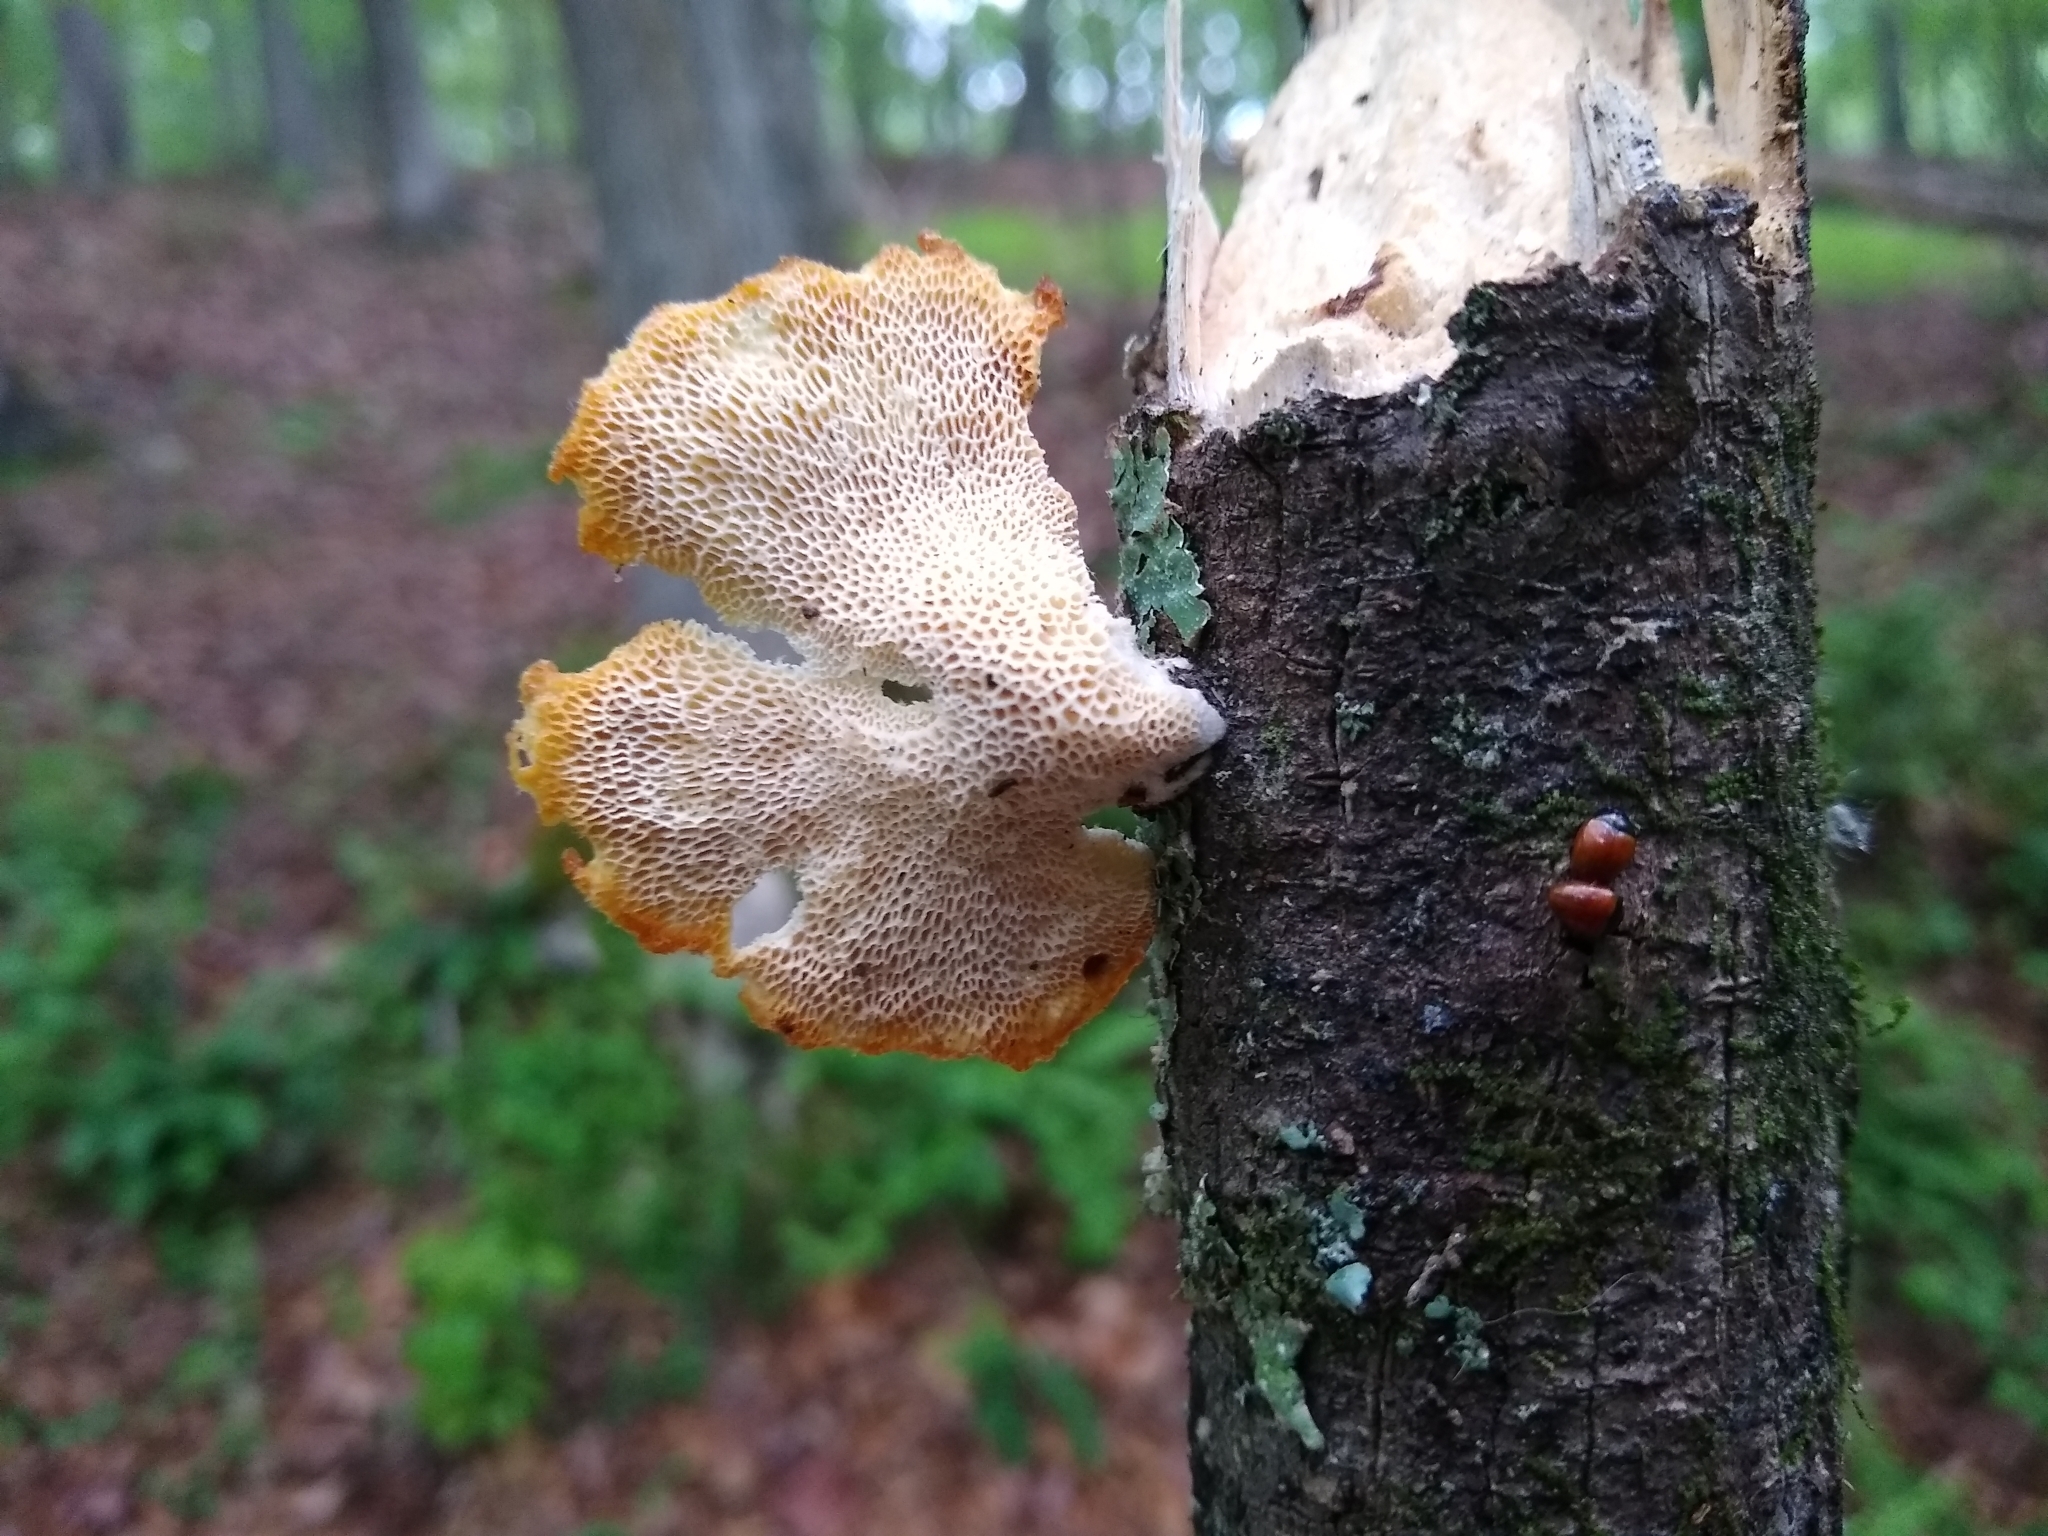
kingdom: Fungi
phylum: Basidiomycota
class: Agaricomycetes
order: Polyporales
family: Polyporaceae
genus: Neofavolus
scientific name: Neofavolus alveolaris
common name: Hexagonal-pored polypore
